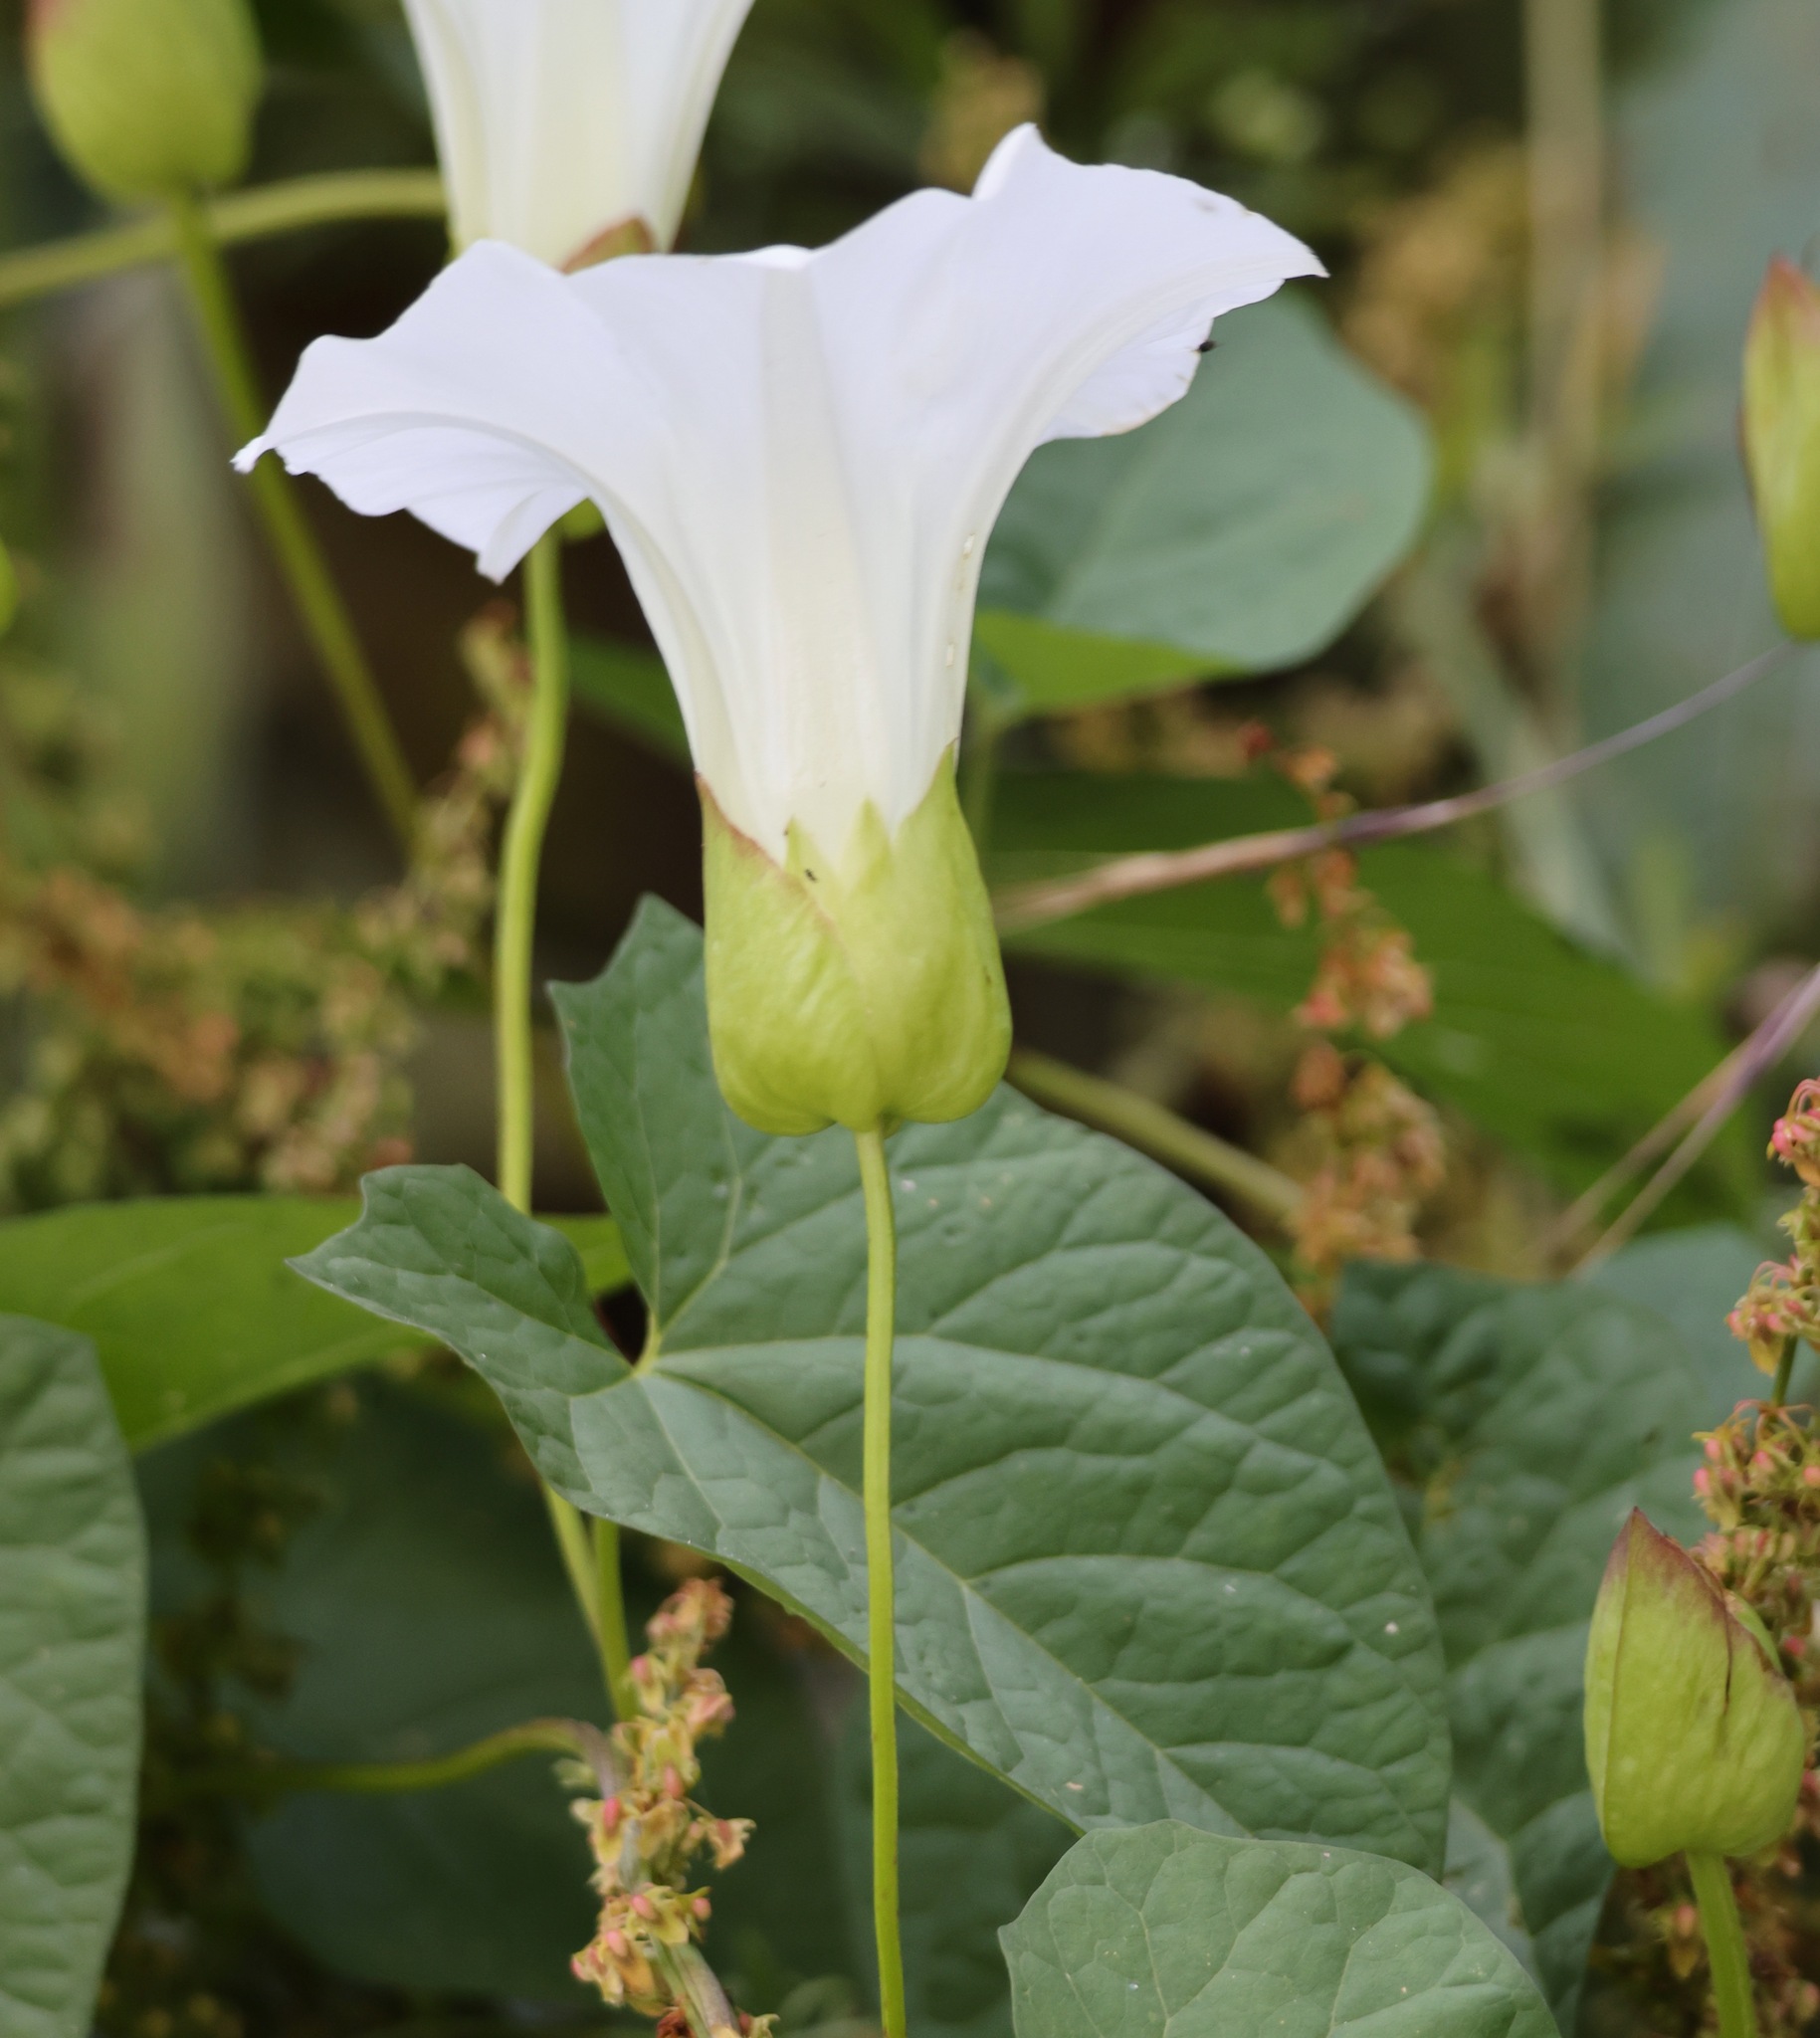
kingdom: Plantae
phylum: Tracheophyta
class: Magnoliopsida
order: Solanales
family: Convolvulaceae
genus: Calystegia
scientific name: Calystegia silvatica
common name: Large bindweed
